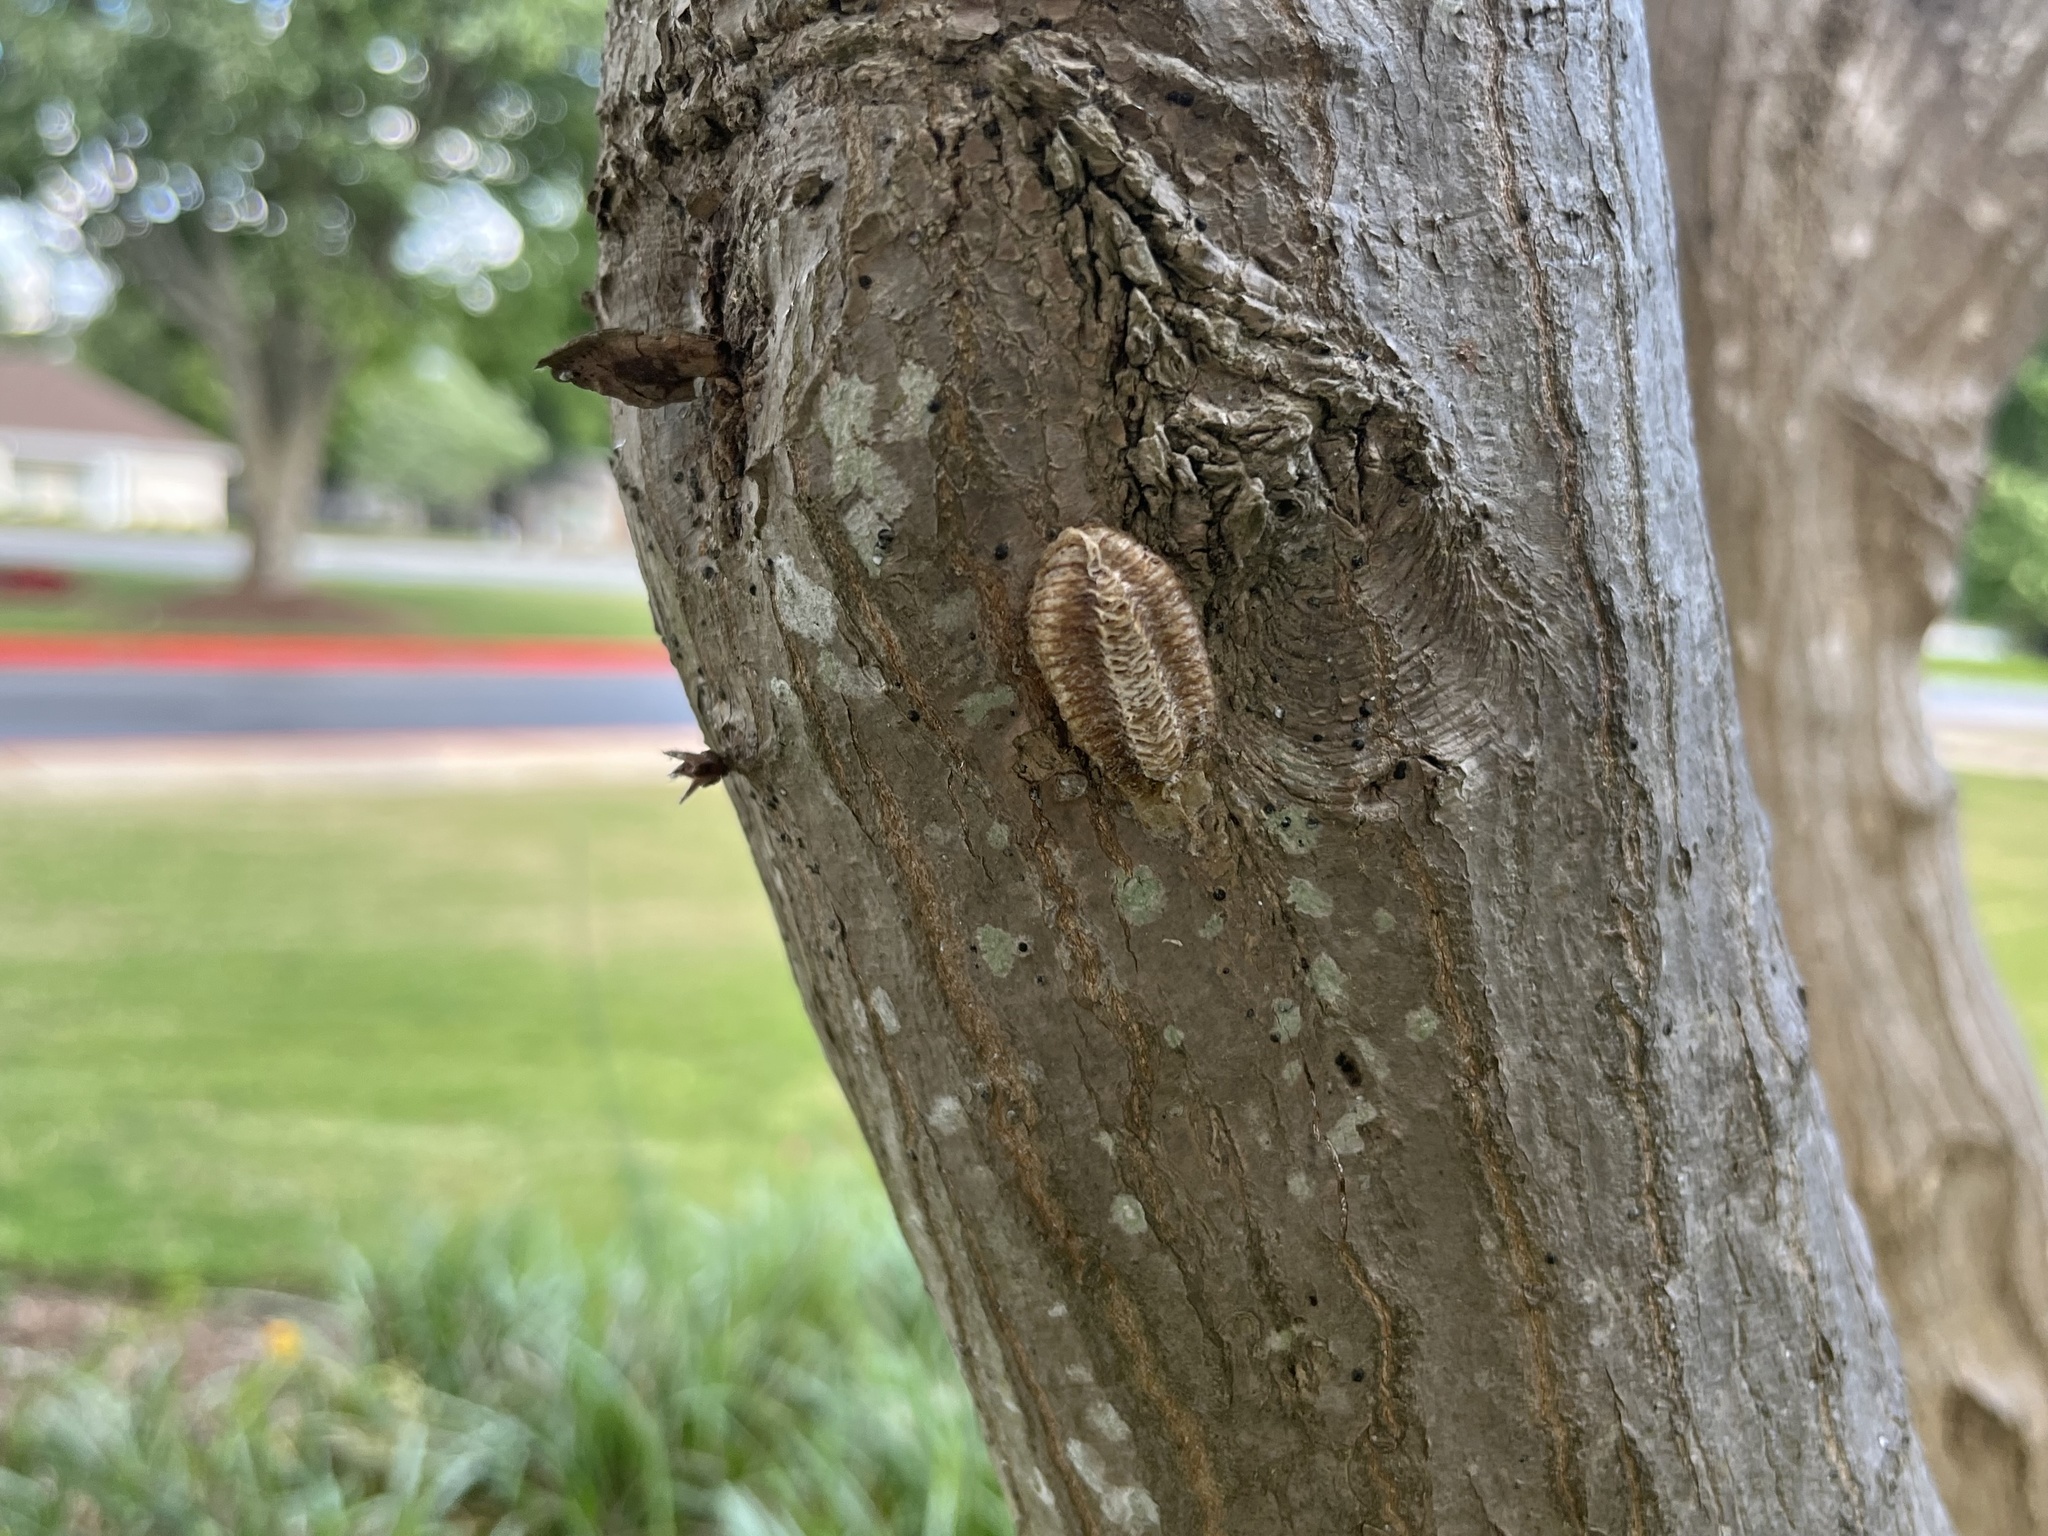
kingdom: Animalia
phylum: Arthropoda
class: Insecta
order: Mantodea
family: Mantidae
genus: Stagmomantis
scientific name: Stagmomantis carolina
